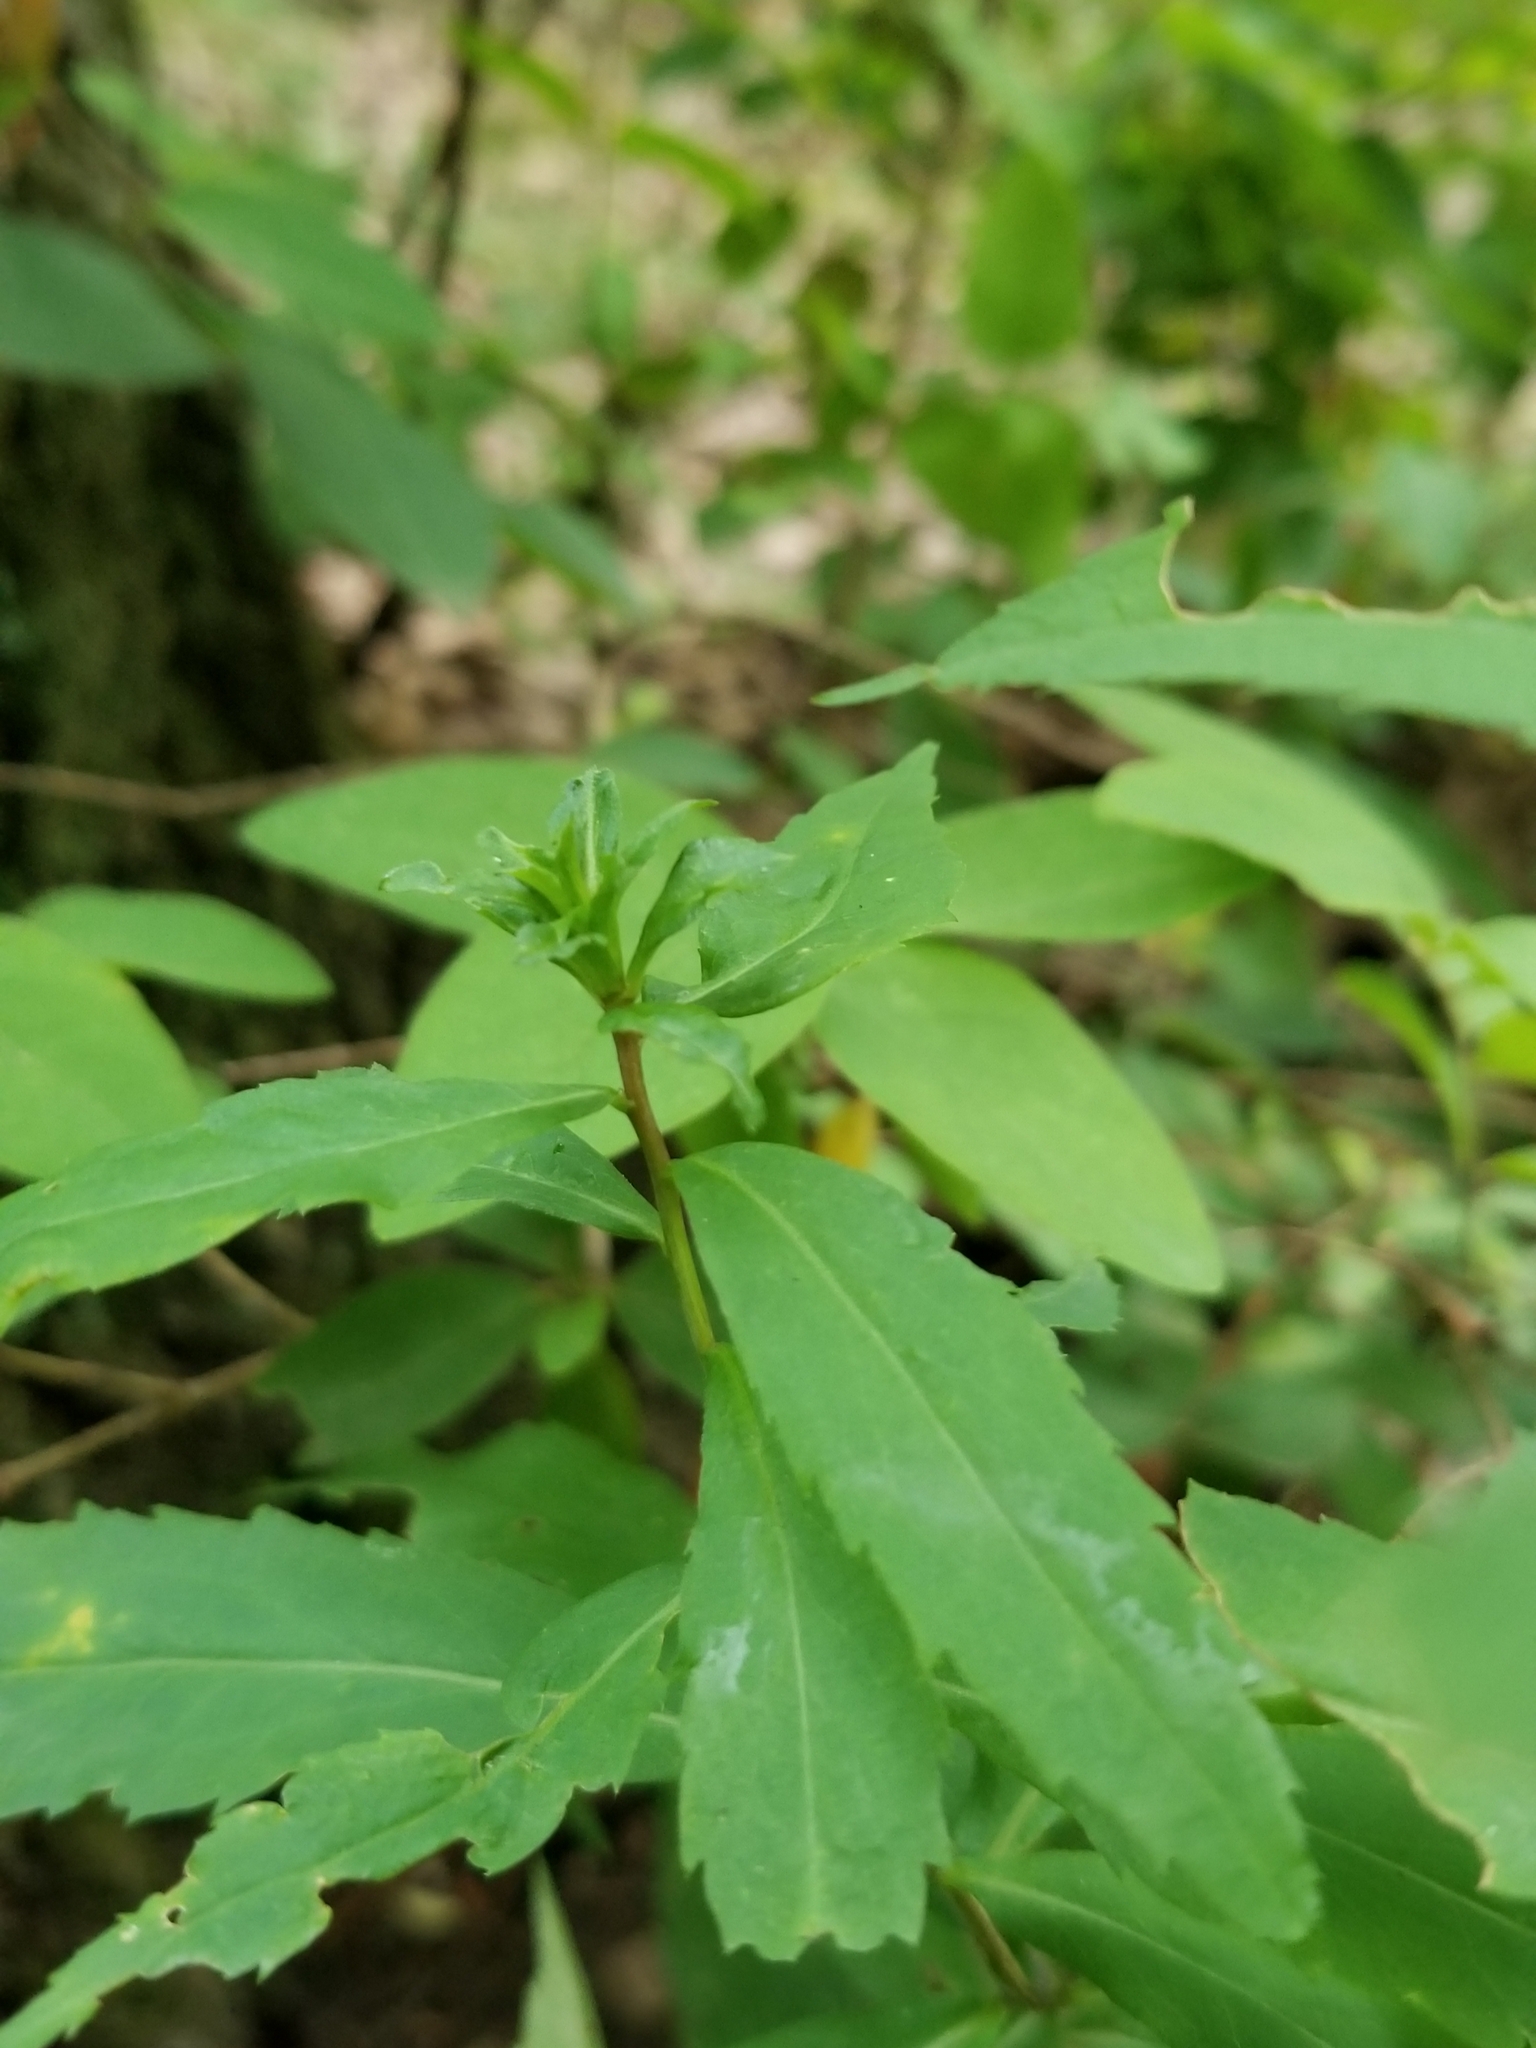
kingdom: Plantae
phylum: Tracheophyta
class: Magnoliopsida
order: Asterales
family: Asteraceae
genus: Solidago
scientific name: Solidago caesia
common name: Woodland goldenrod
